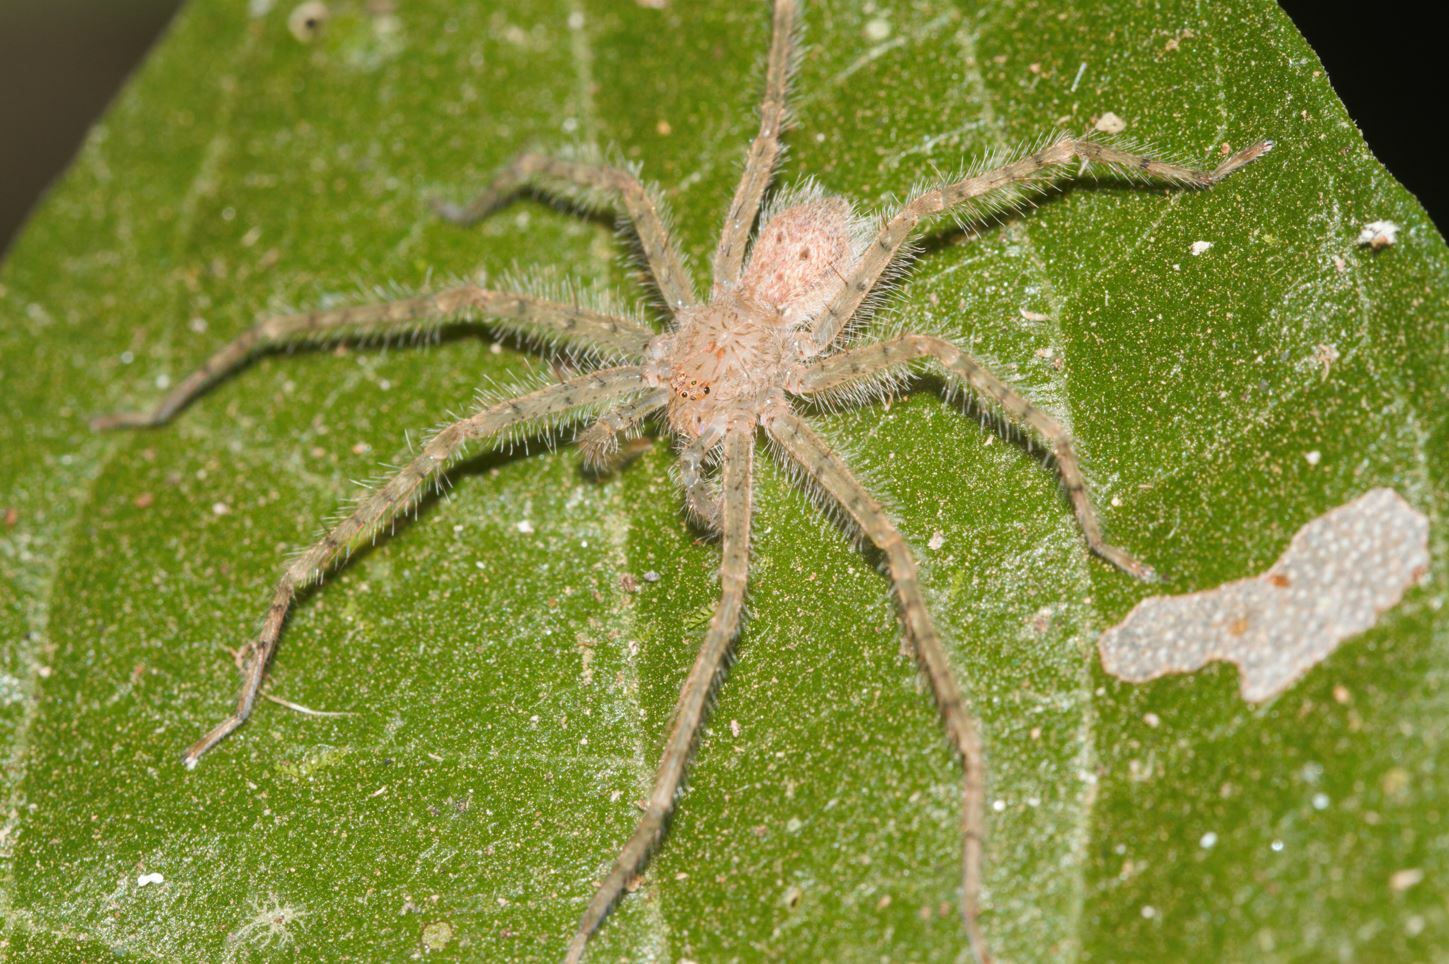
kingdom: Animalia
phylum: Arthropoda
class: Arachnida
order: Araneae
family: Sparassidae
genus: Guadana
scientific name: Guadana arawak
